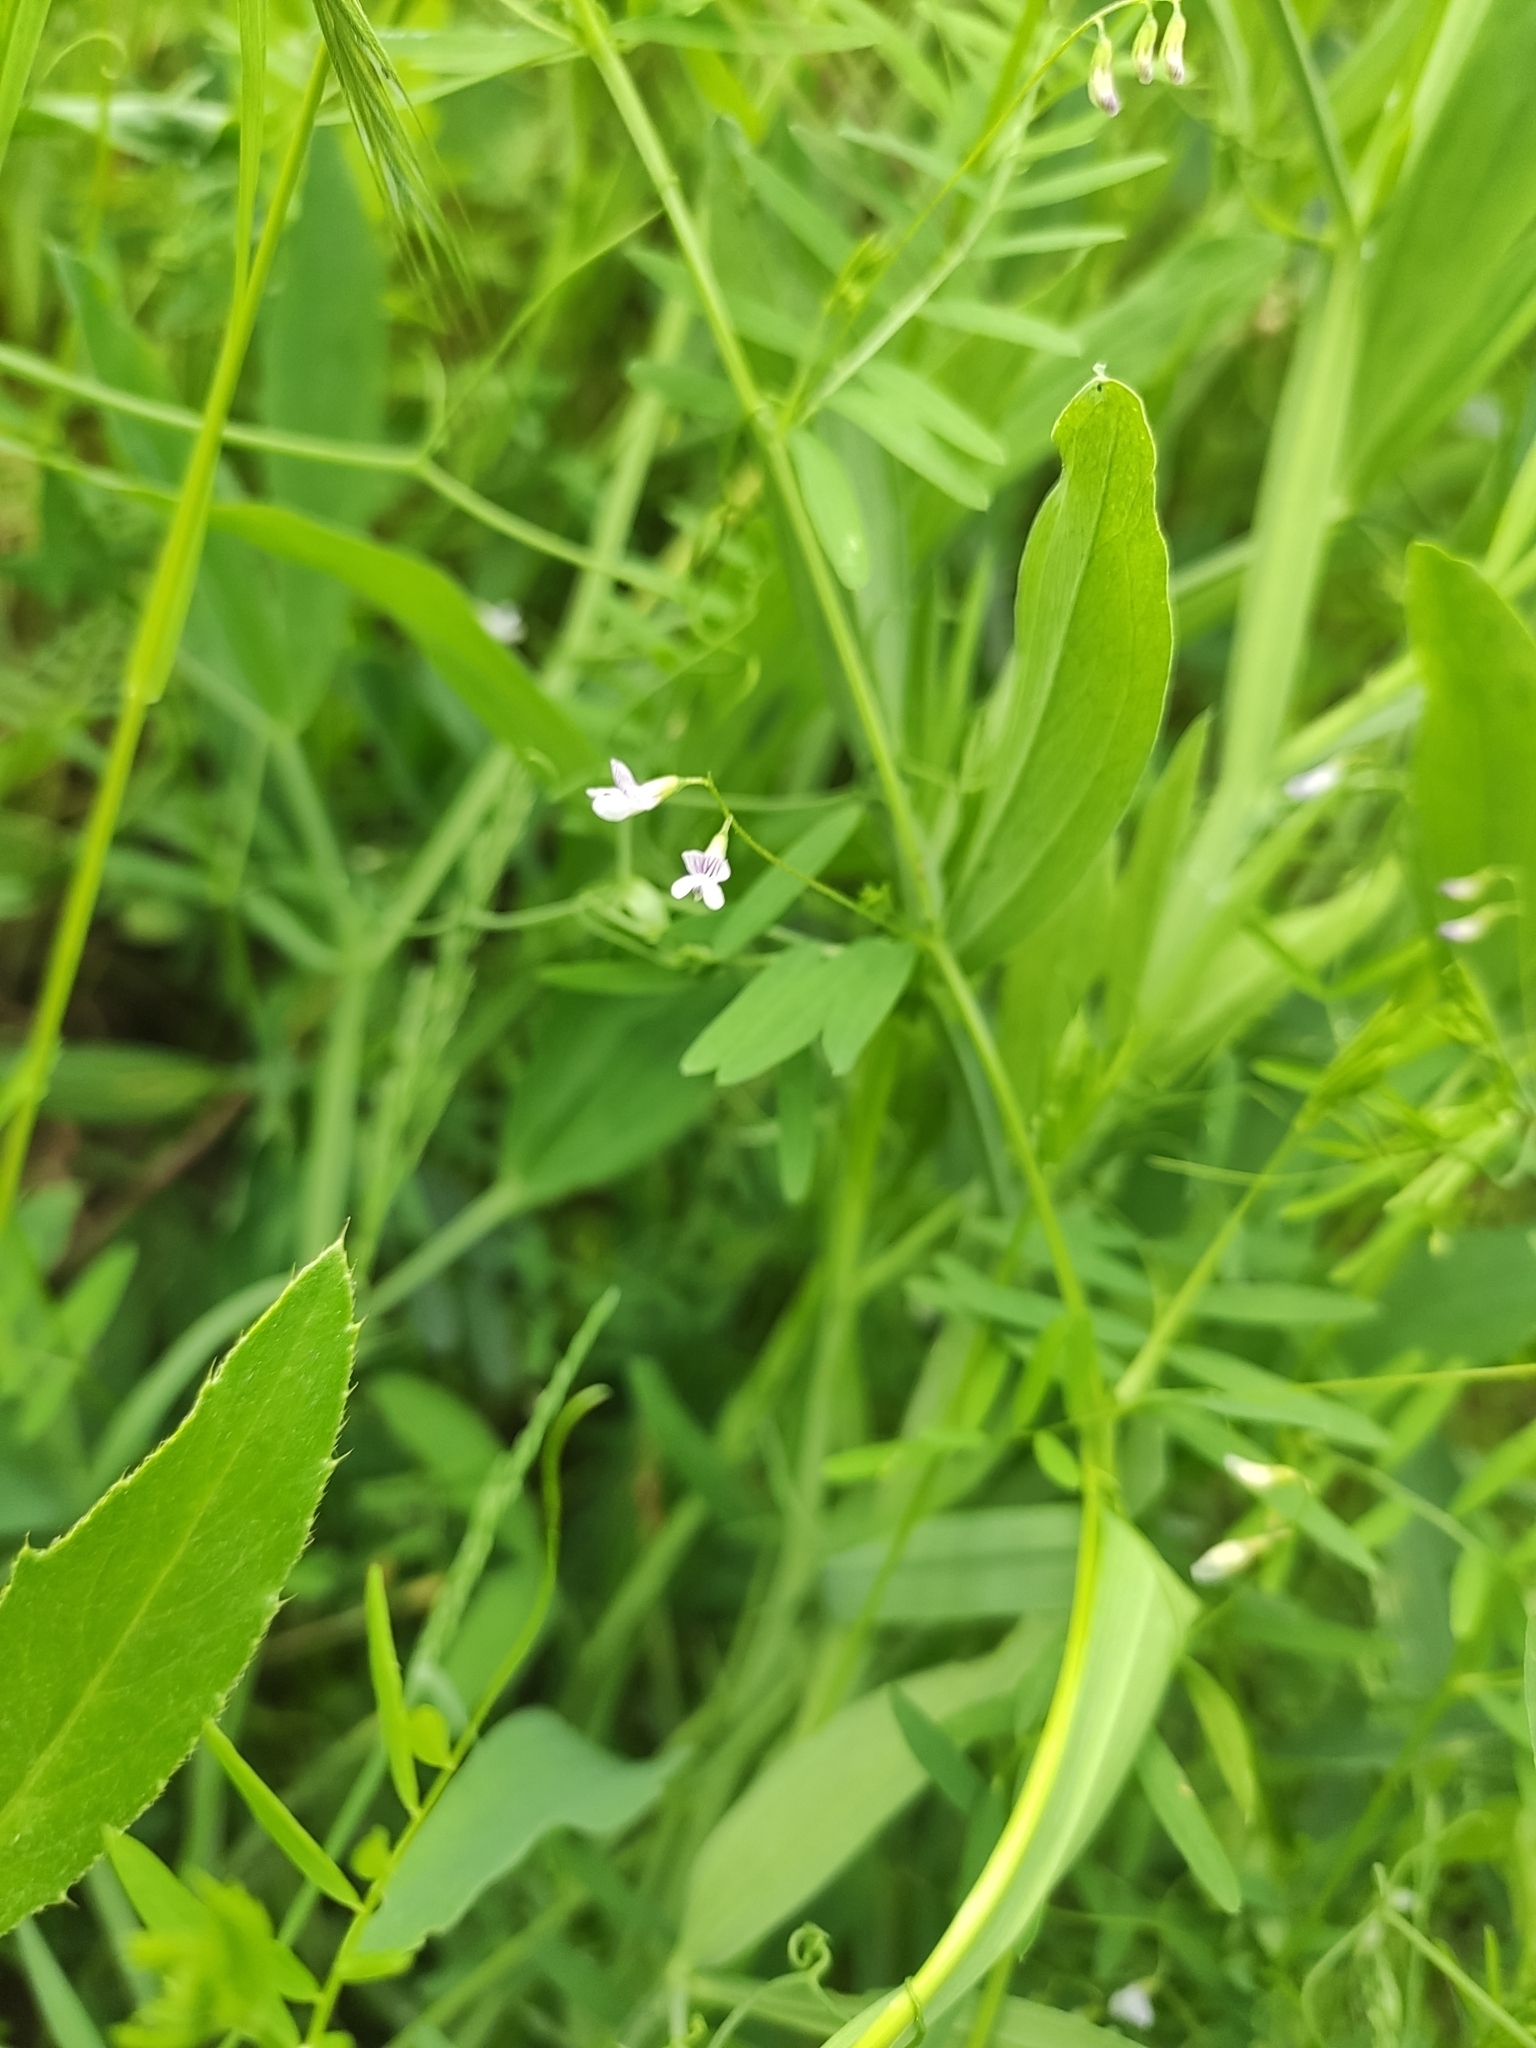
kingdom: Plantae
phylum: Tracheophyta
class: Magnoliopsida
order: Fabales
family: Fabaceae
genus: Vicia
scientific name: Vicia tetrasperma
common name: Smooth tare
